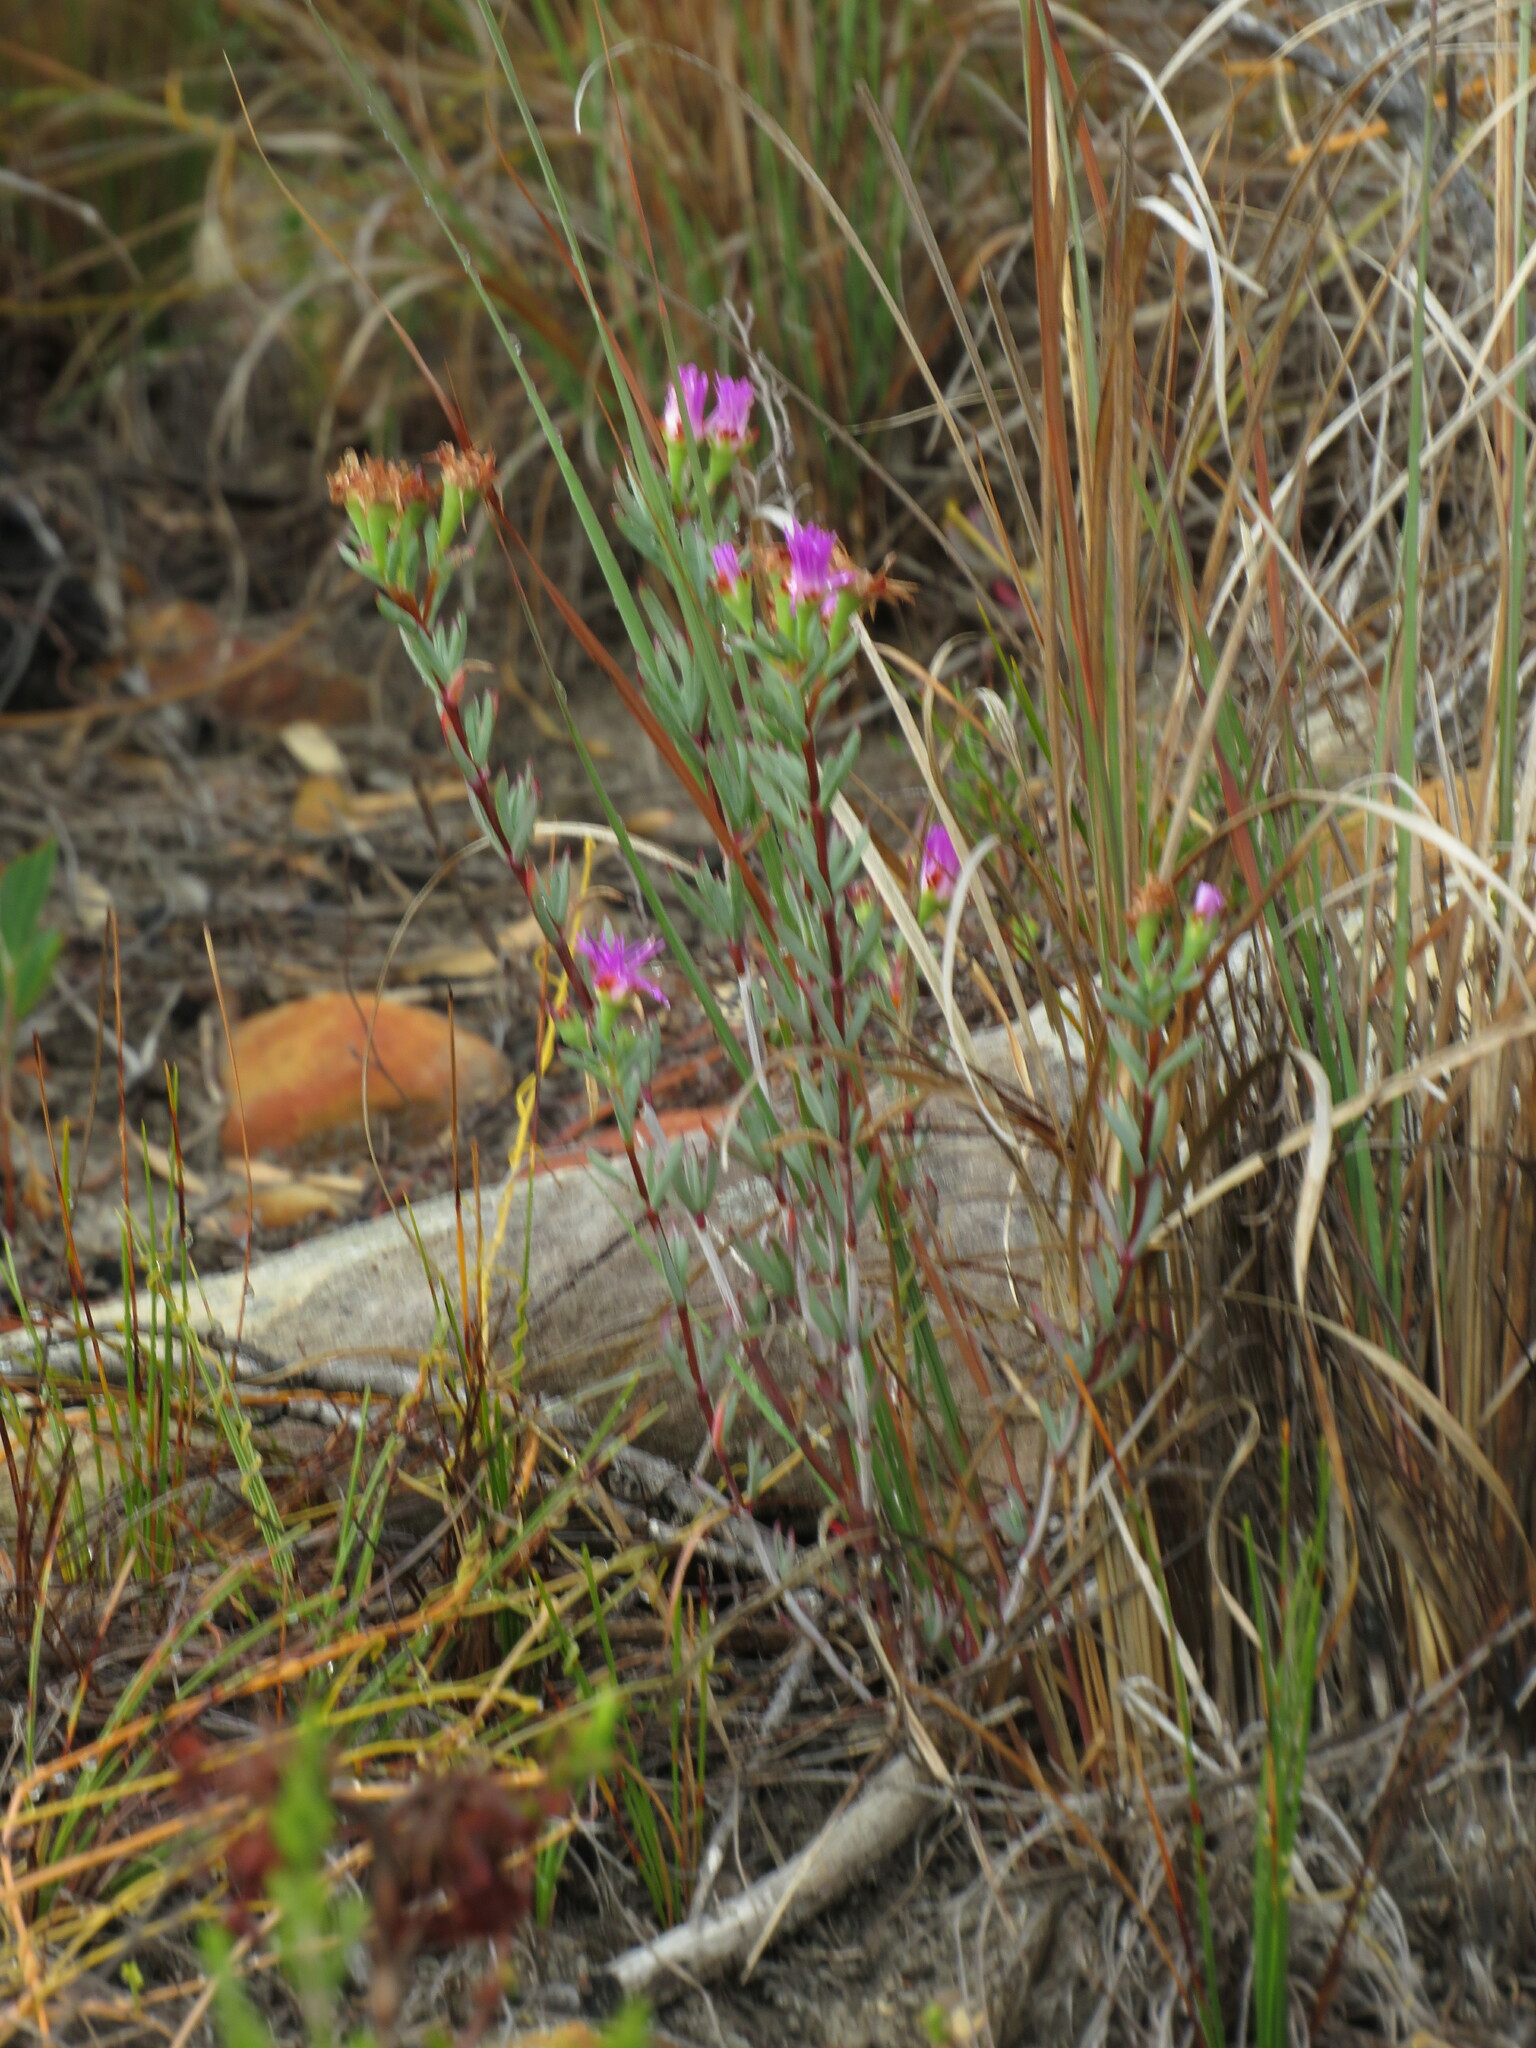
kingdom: Plantae
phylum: Tracheophyta
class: Magnoliopsida
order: Caryophyllales
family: Aizoaceae
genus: Lampranthus
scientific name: Lampranthus glomeratus
